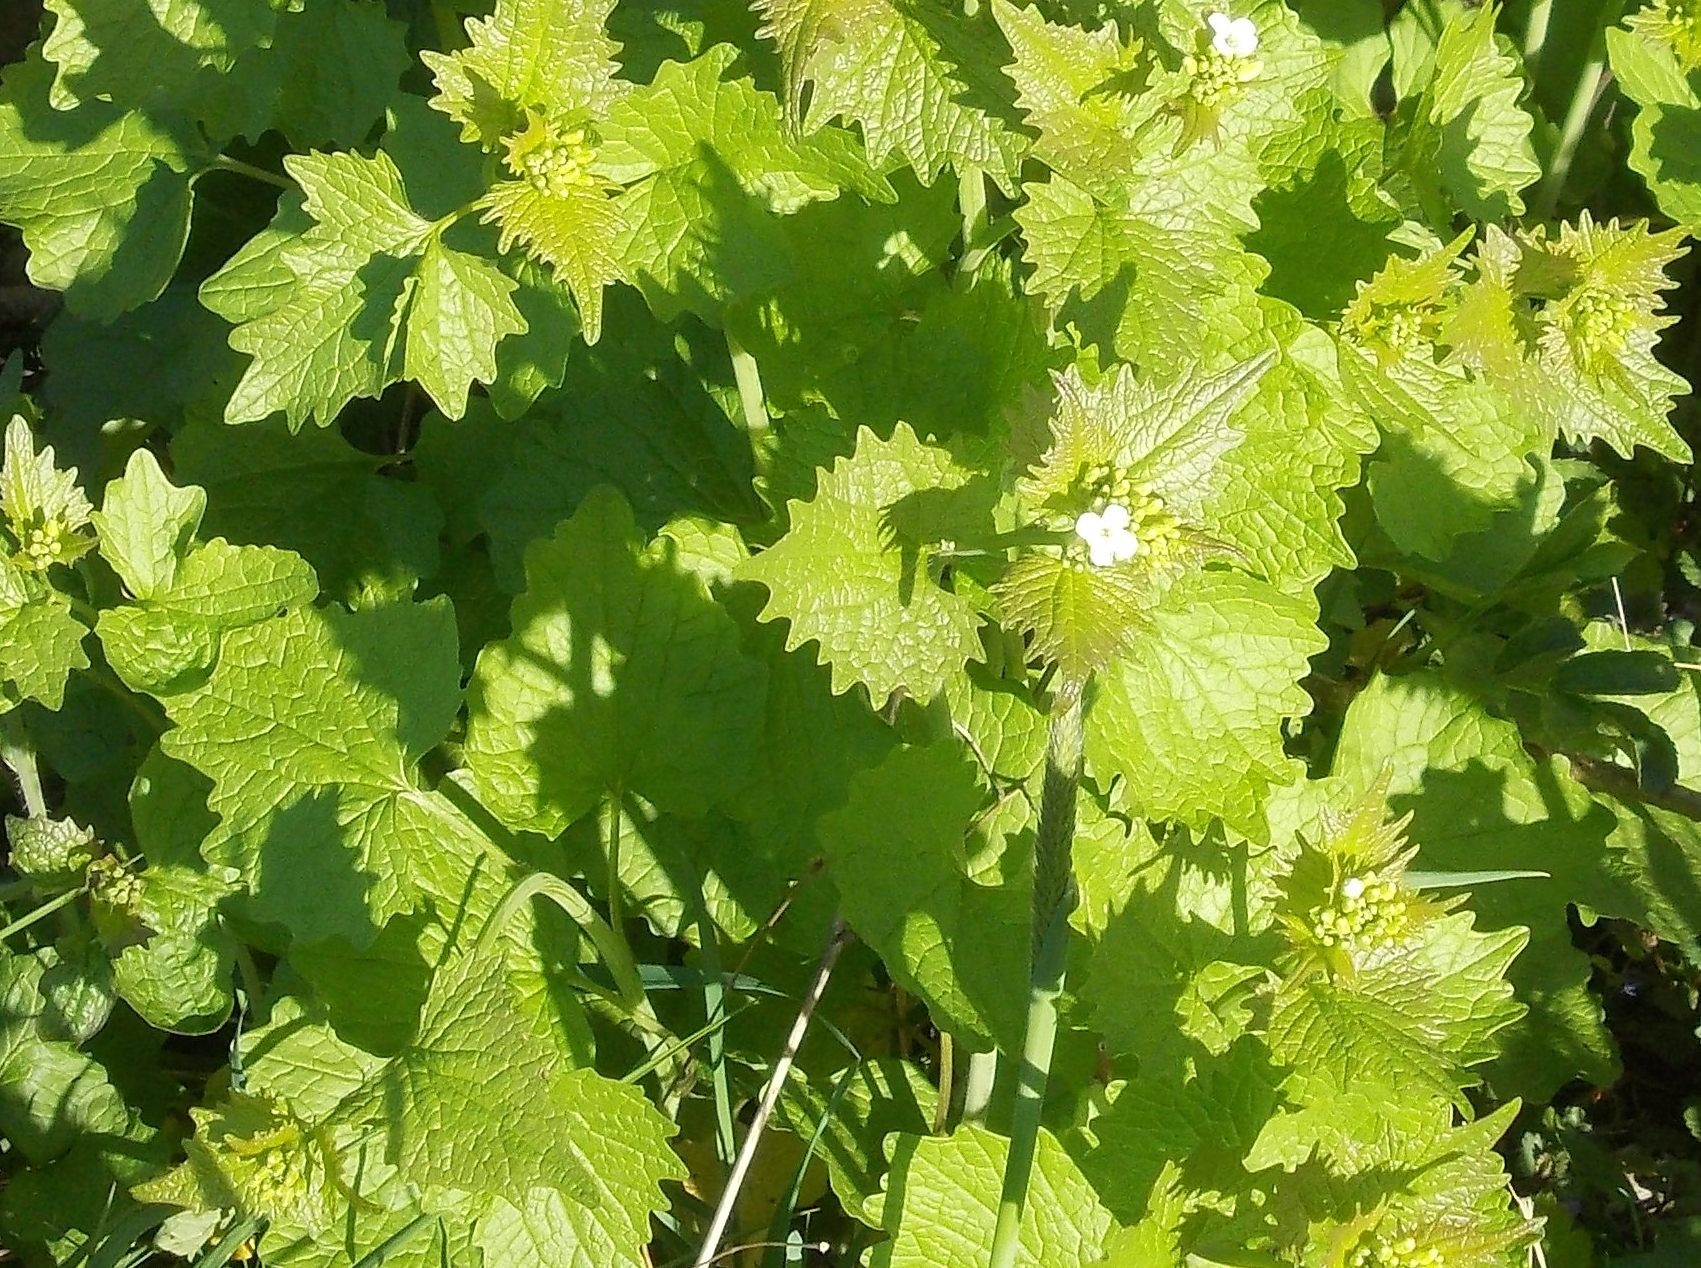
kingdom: Plantae
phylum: Tracheophyta
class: Magnoliopsida
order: Brassicales
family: Brassicaceae
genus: Alliaria
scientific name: Alliaria petiolata
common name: Garlic mustard
